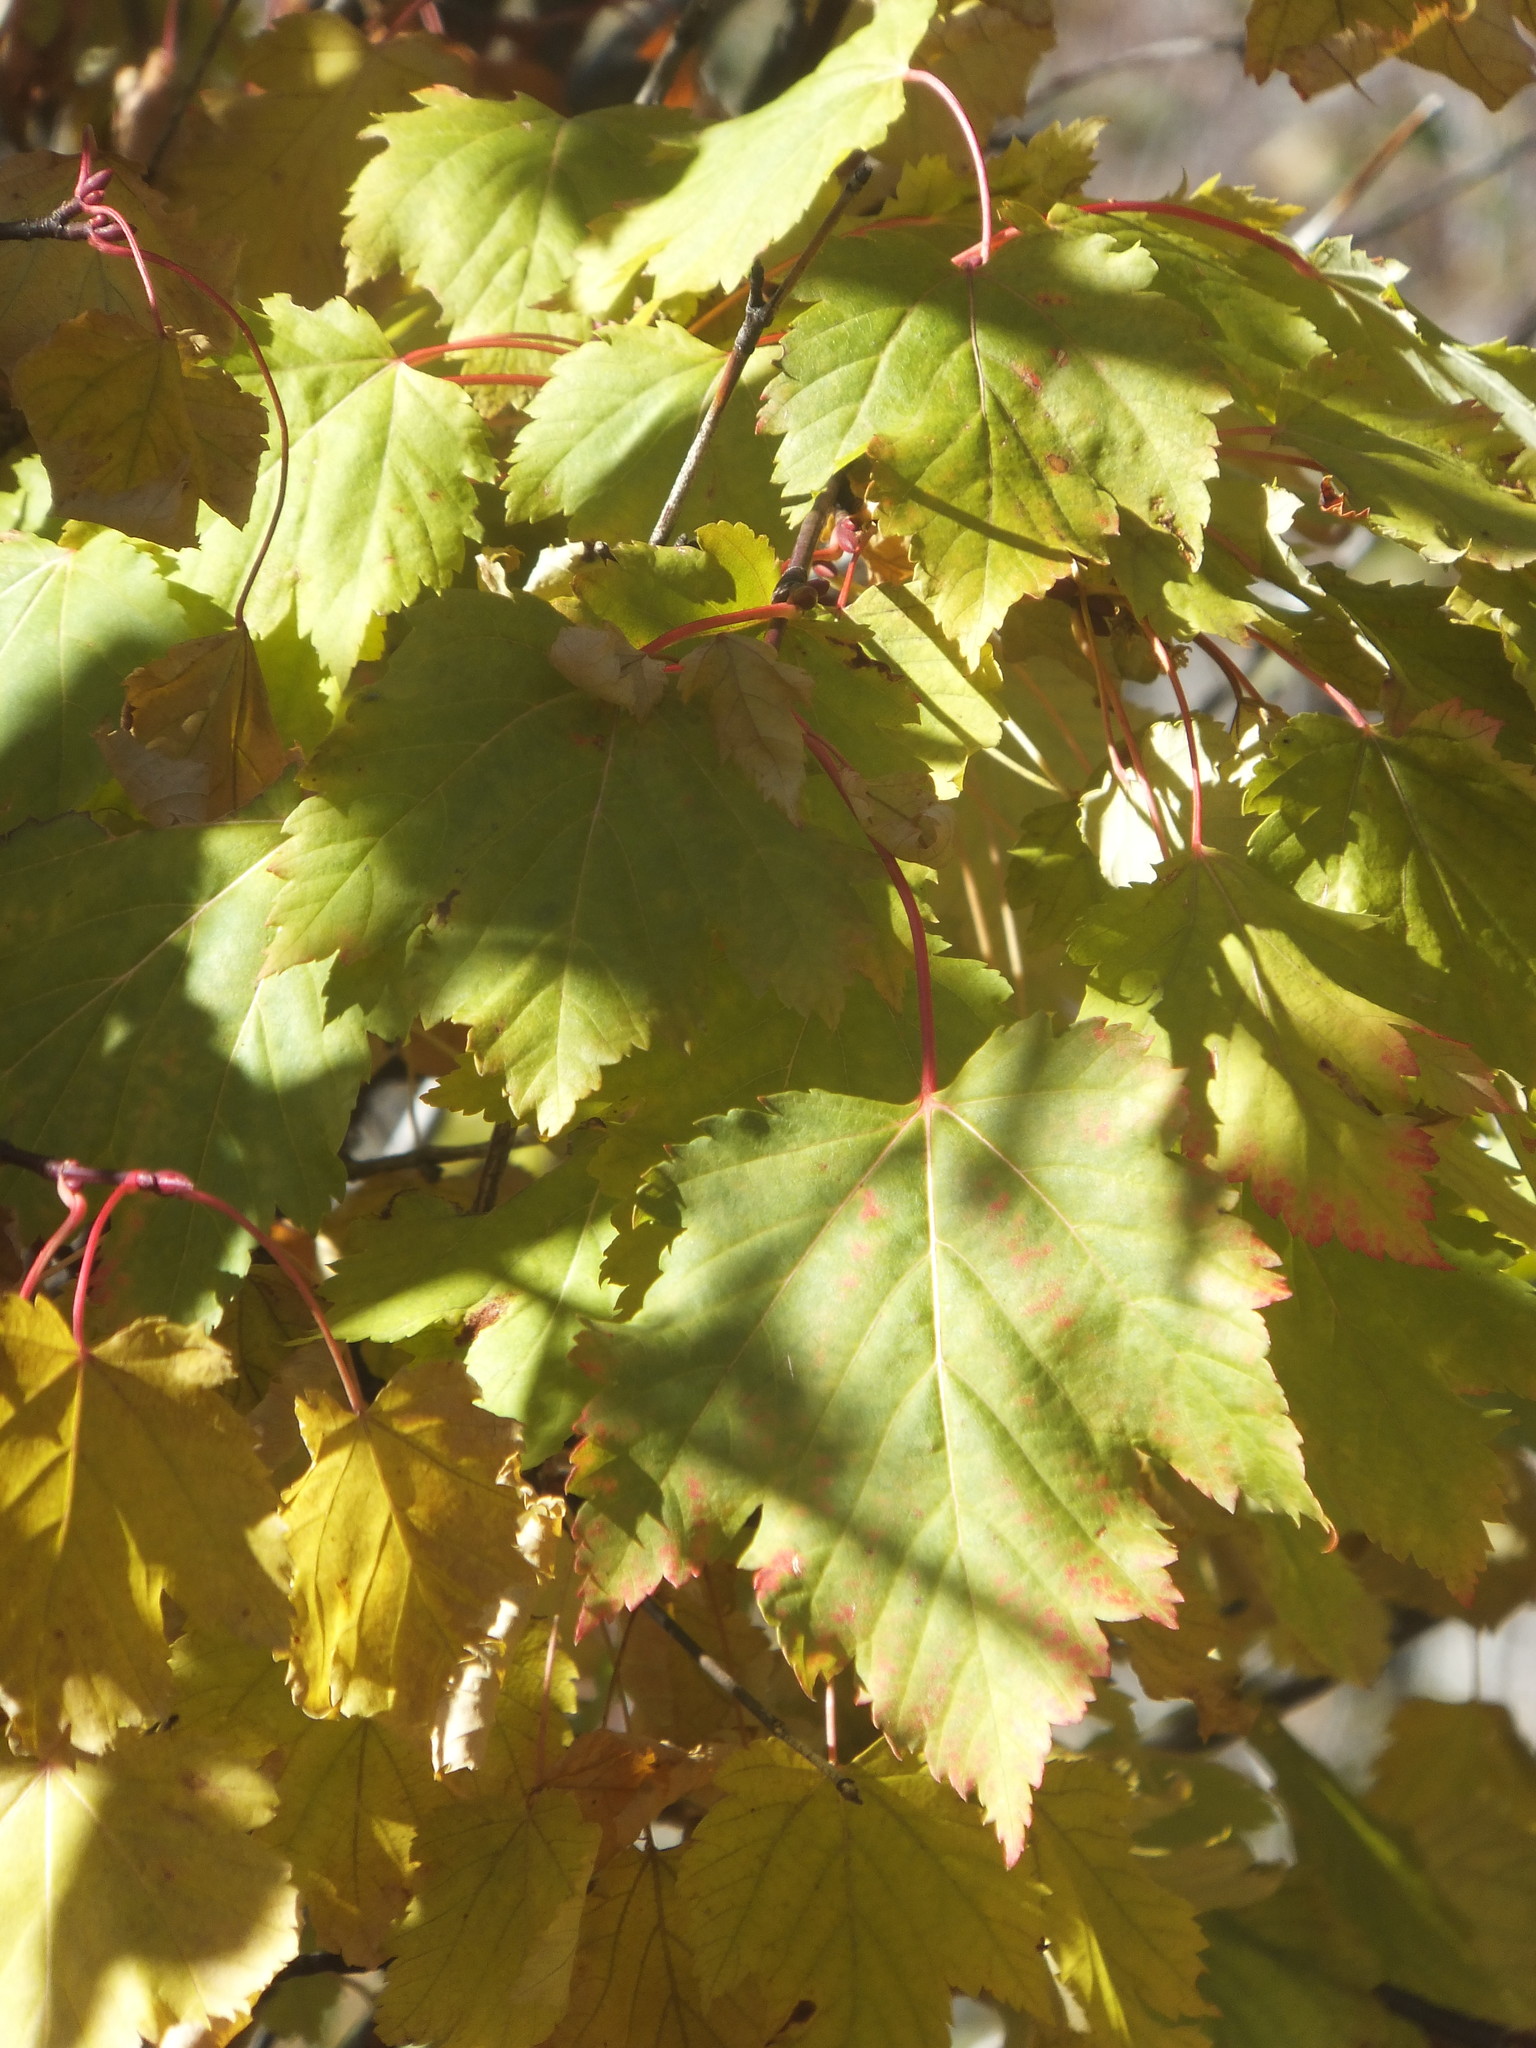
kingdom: Plantae
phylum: Tracheophyta
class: Magnoliopsida
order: Sapindales
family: Sapindaceae
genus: Acer
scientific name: Acer glabrum
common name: Rocky mountain maple
